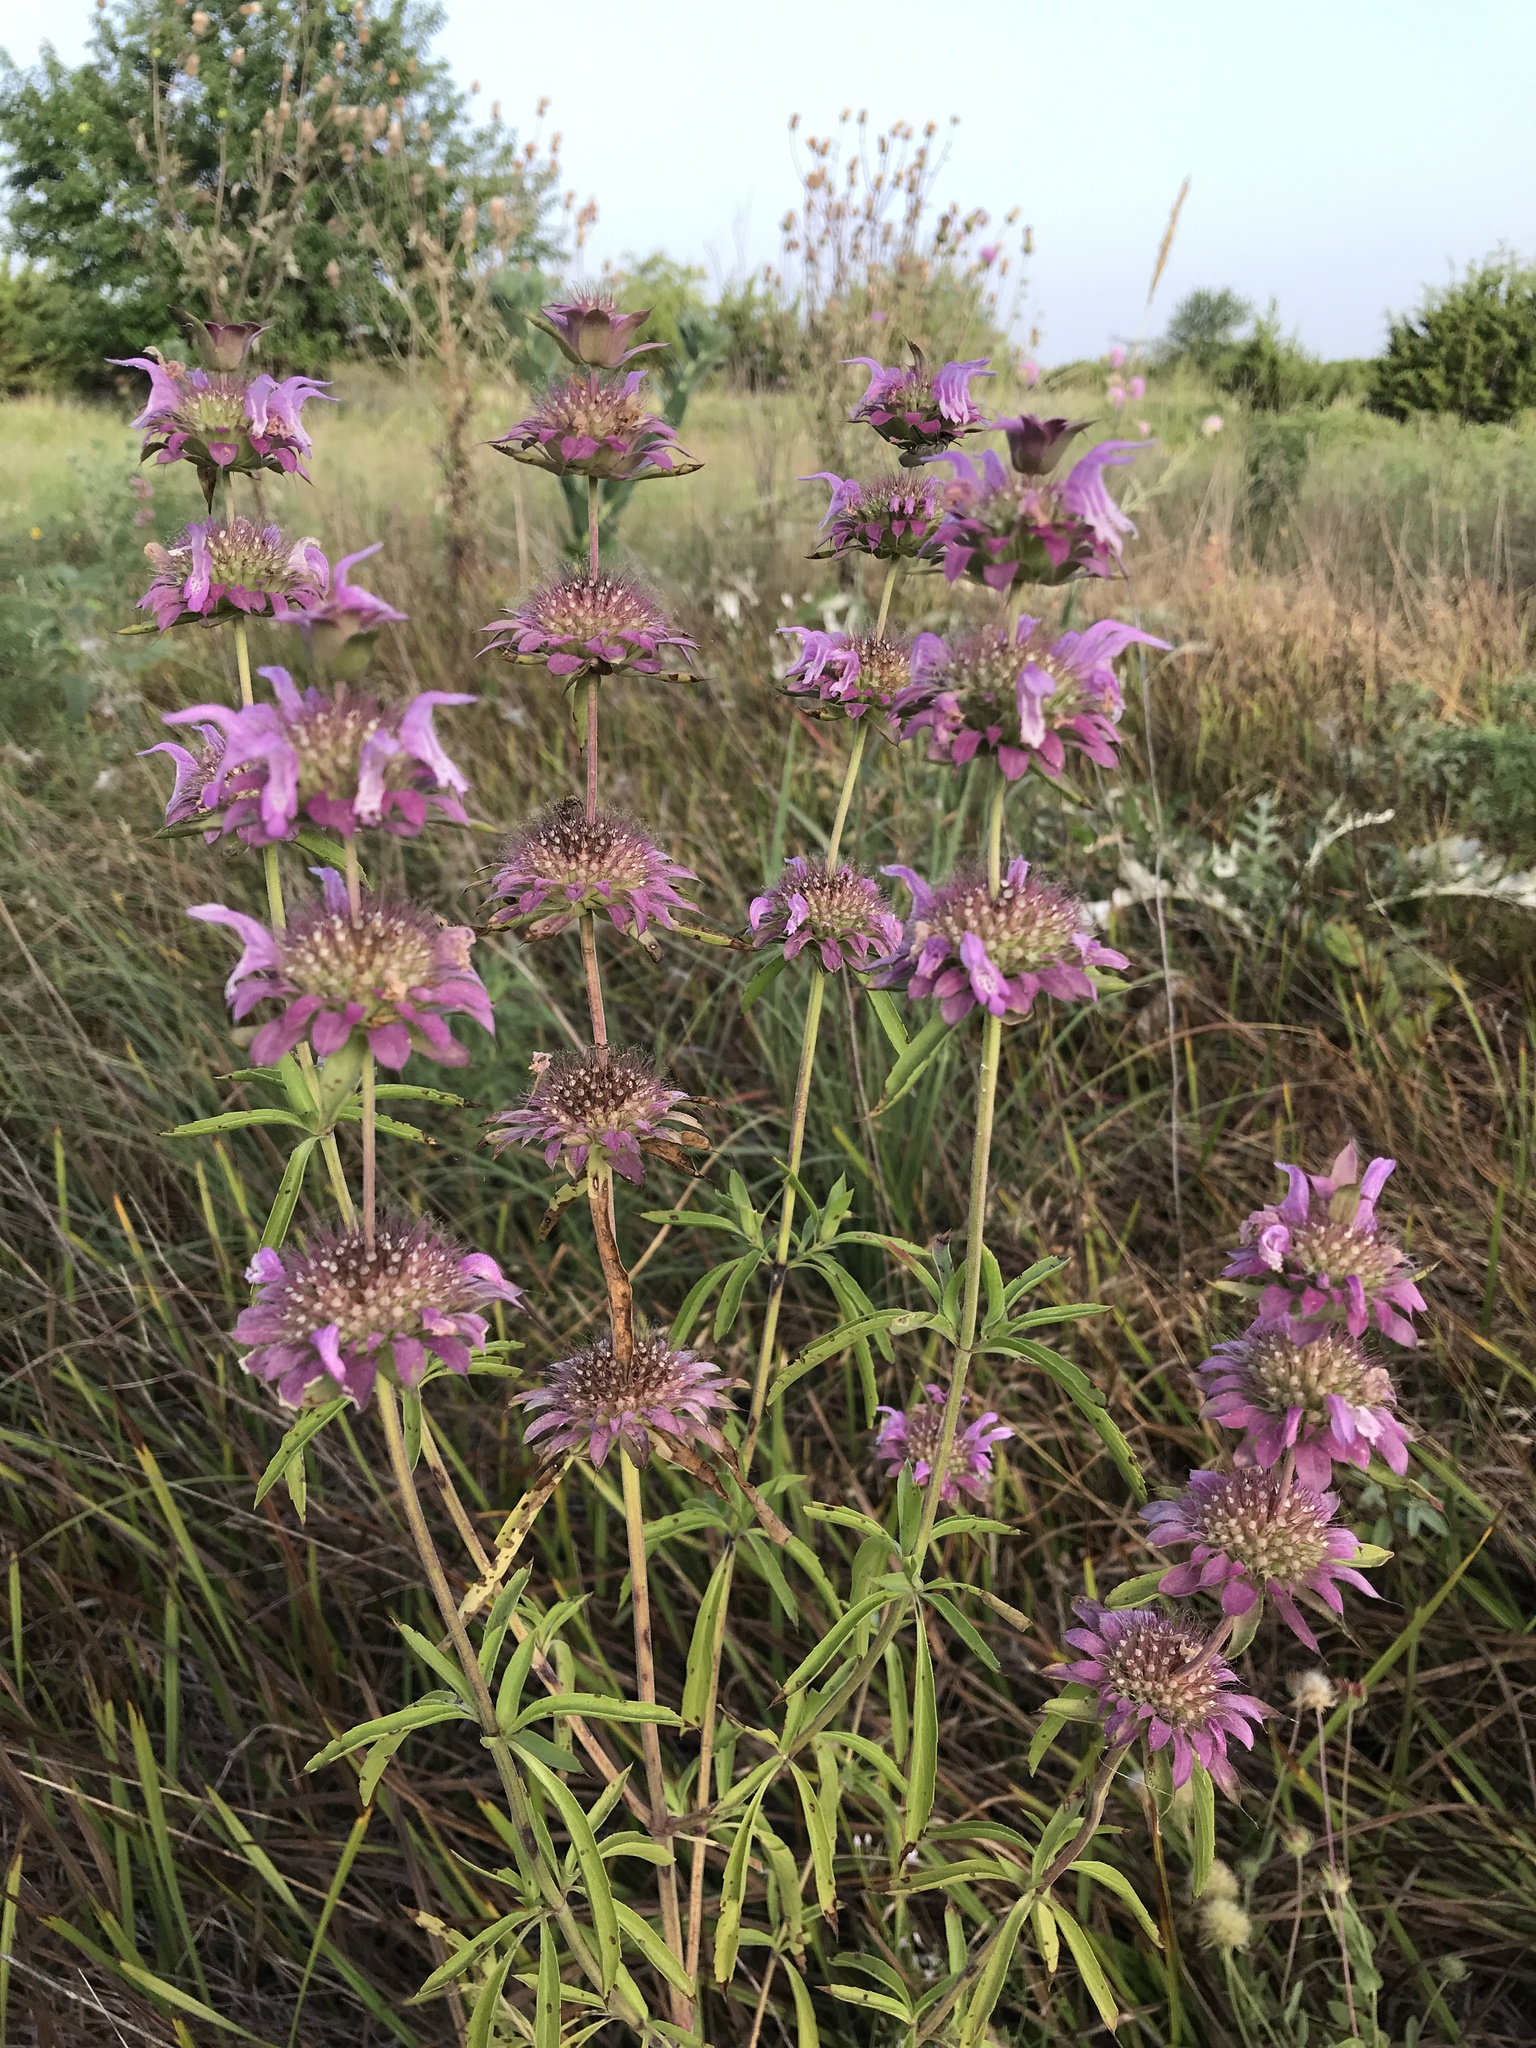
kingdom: Plantae
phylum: Tracheophyta
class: Magnoliopsida
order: Lamiales
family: Lamiaceae
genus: Monarda
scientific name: Monarda citriodora
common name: Lemon beebalm
